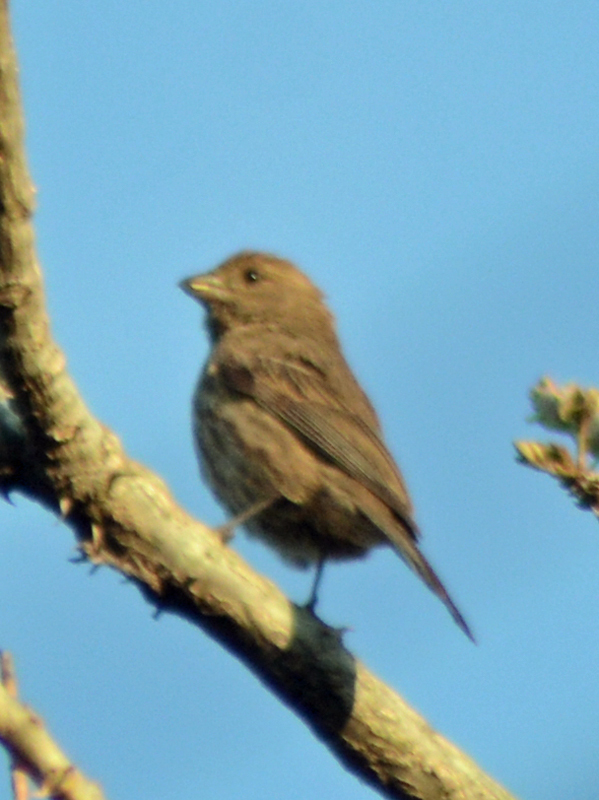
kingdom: Animalia
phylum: Chordata
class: Aves
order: Passeriformes
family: Fringillidae
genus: Haemorhous
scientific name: Haemorhous mexicanus
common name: House finch
